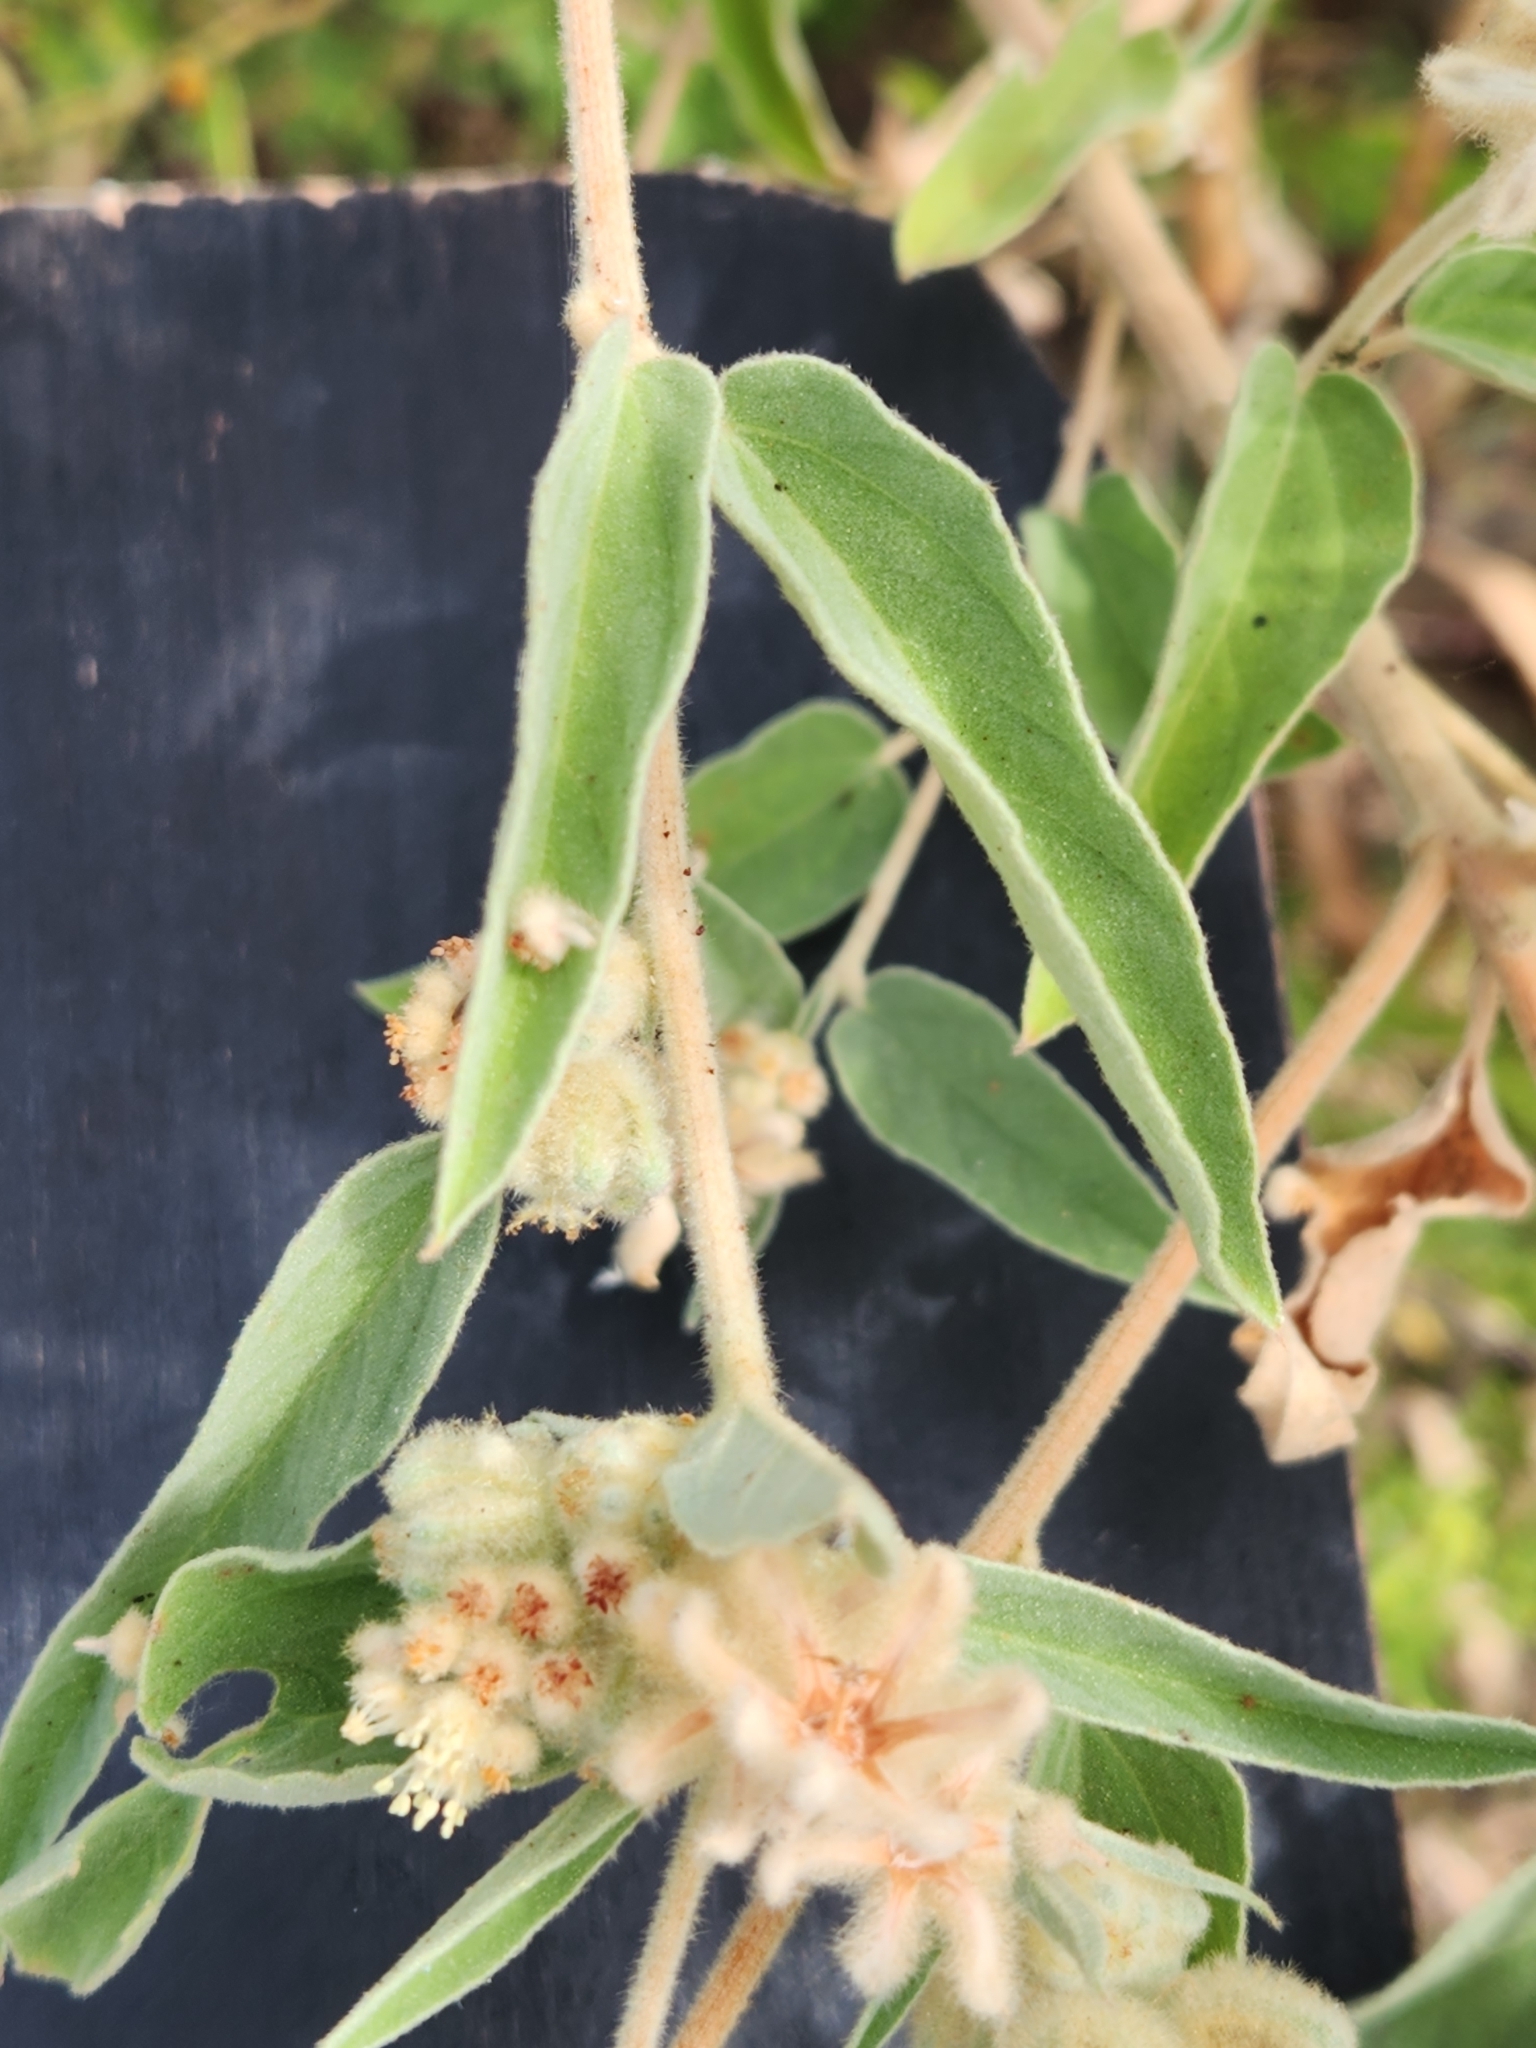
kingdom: Plantae
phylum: Tracheophyta
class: Magnoliopsida
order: Malpighiales
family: Euphorbiaceae
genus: Croton
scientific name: Croton lindheimeri
